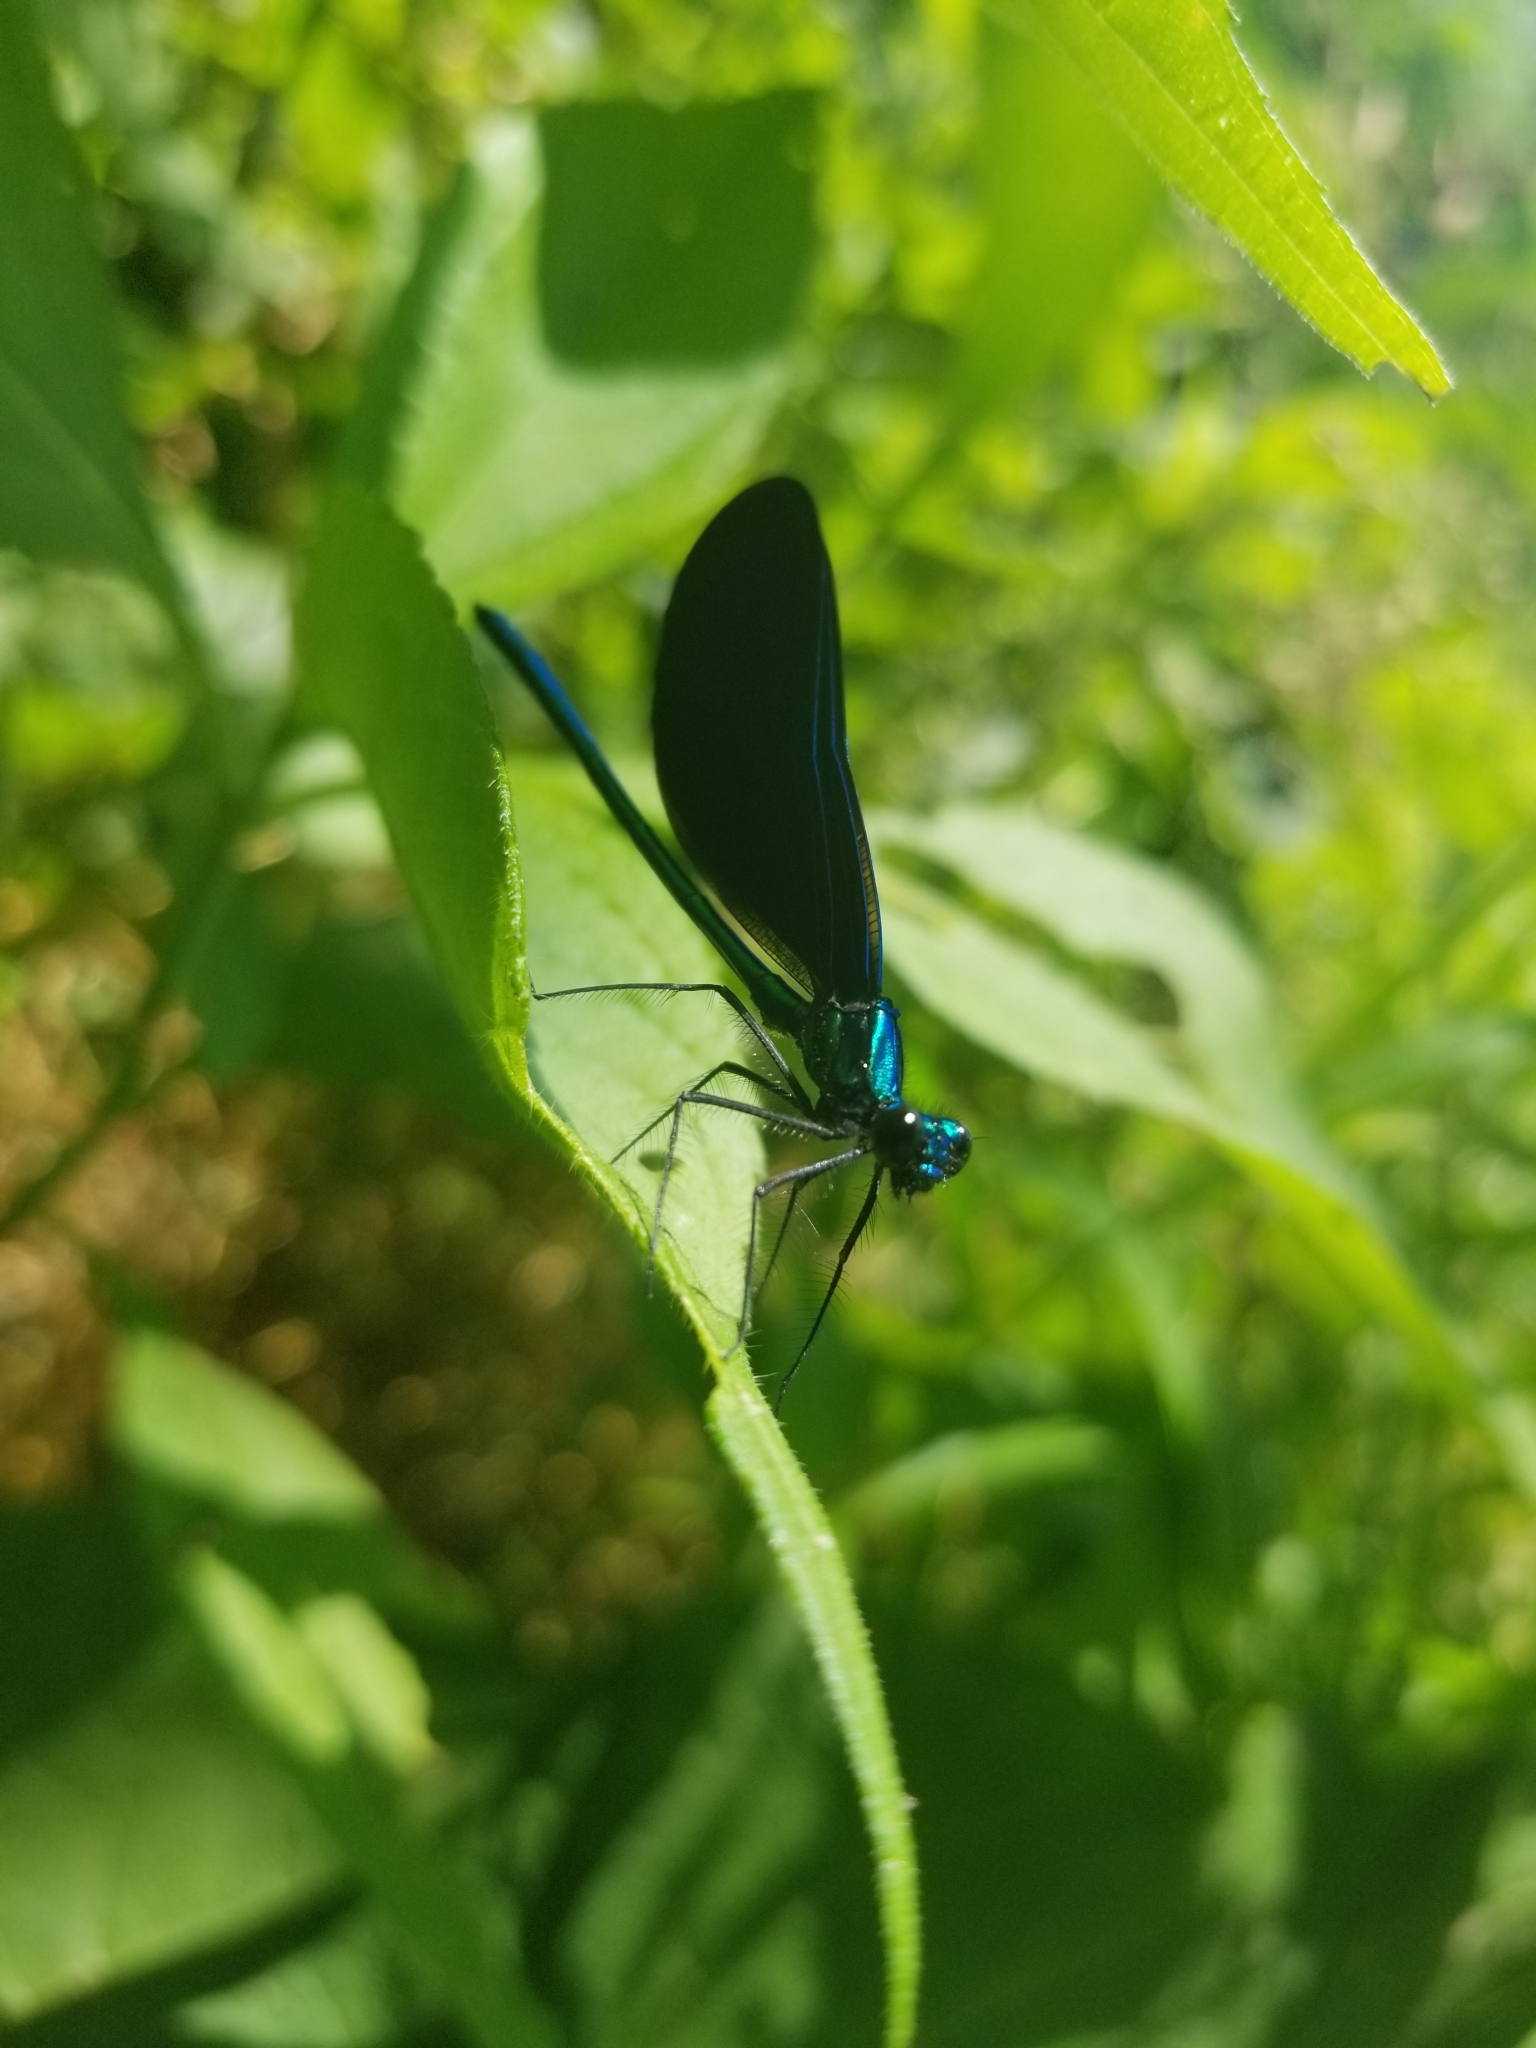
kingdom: Animalia
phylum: Arthropoda
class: Insecta
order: Odonata
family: Calopterygidae
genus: Calopteryx
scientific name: Calopteryx maculata
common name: Ebony jewelwing
